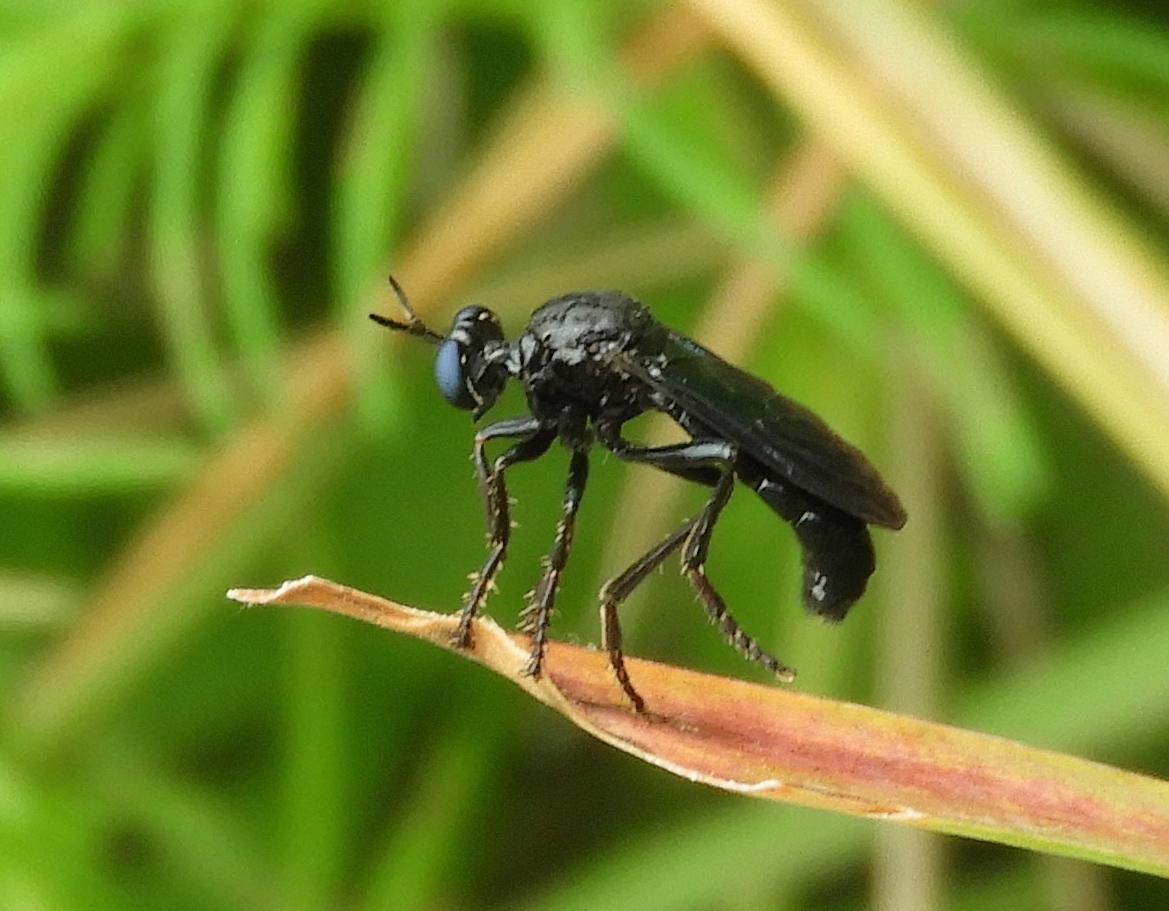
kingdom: Animalia
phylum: Arthropoda
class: Insecta
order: Diptera
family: Asilidae
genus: Saropogon
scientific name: Saropogon
